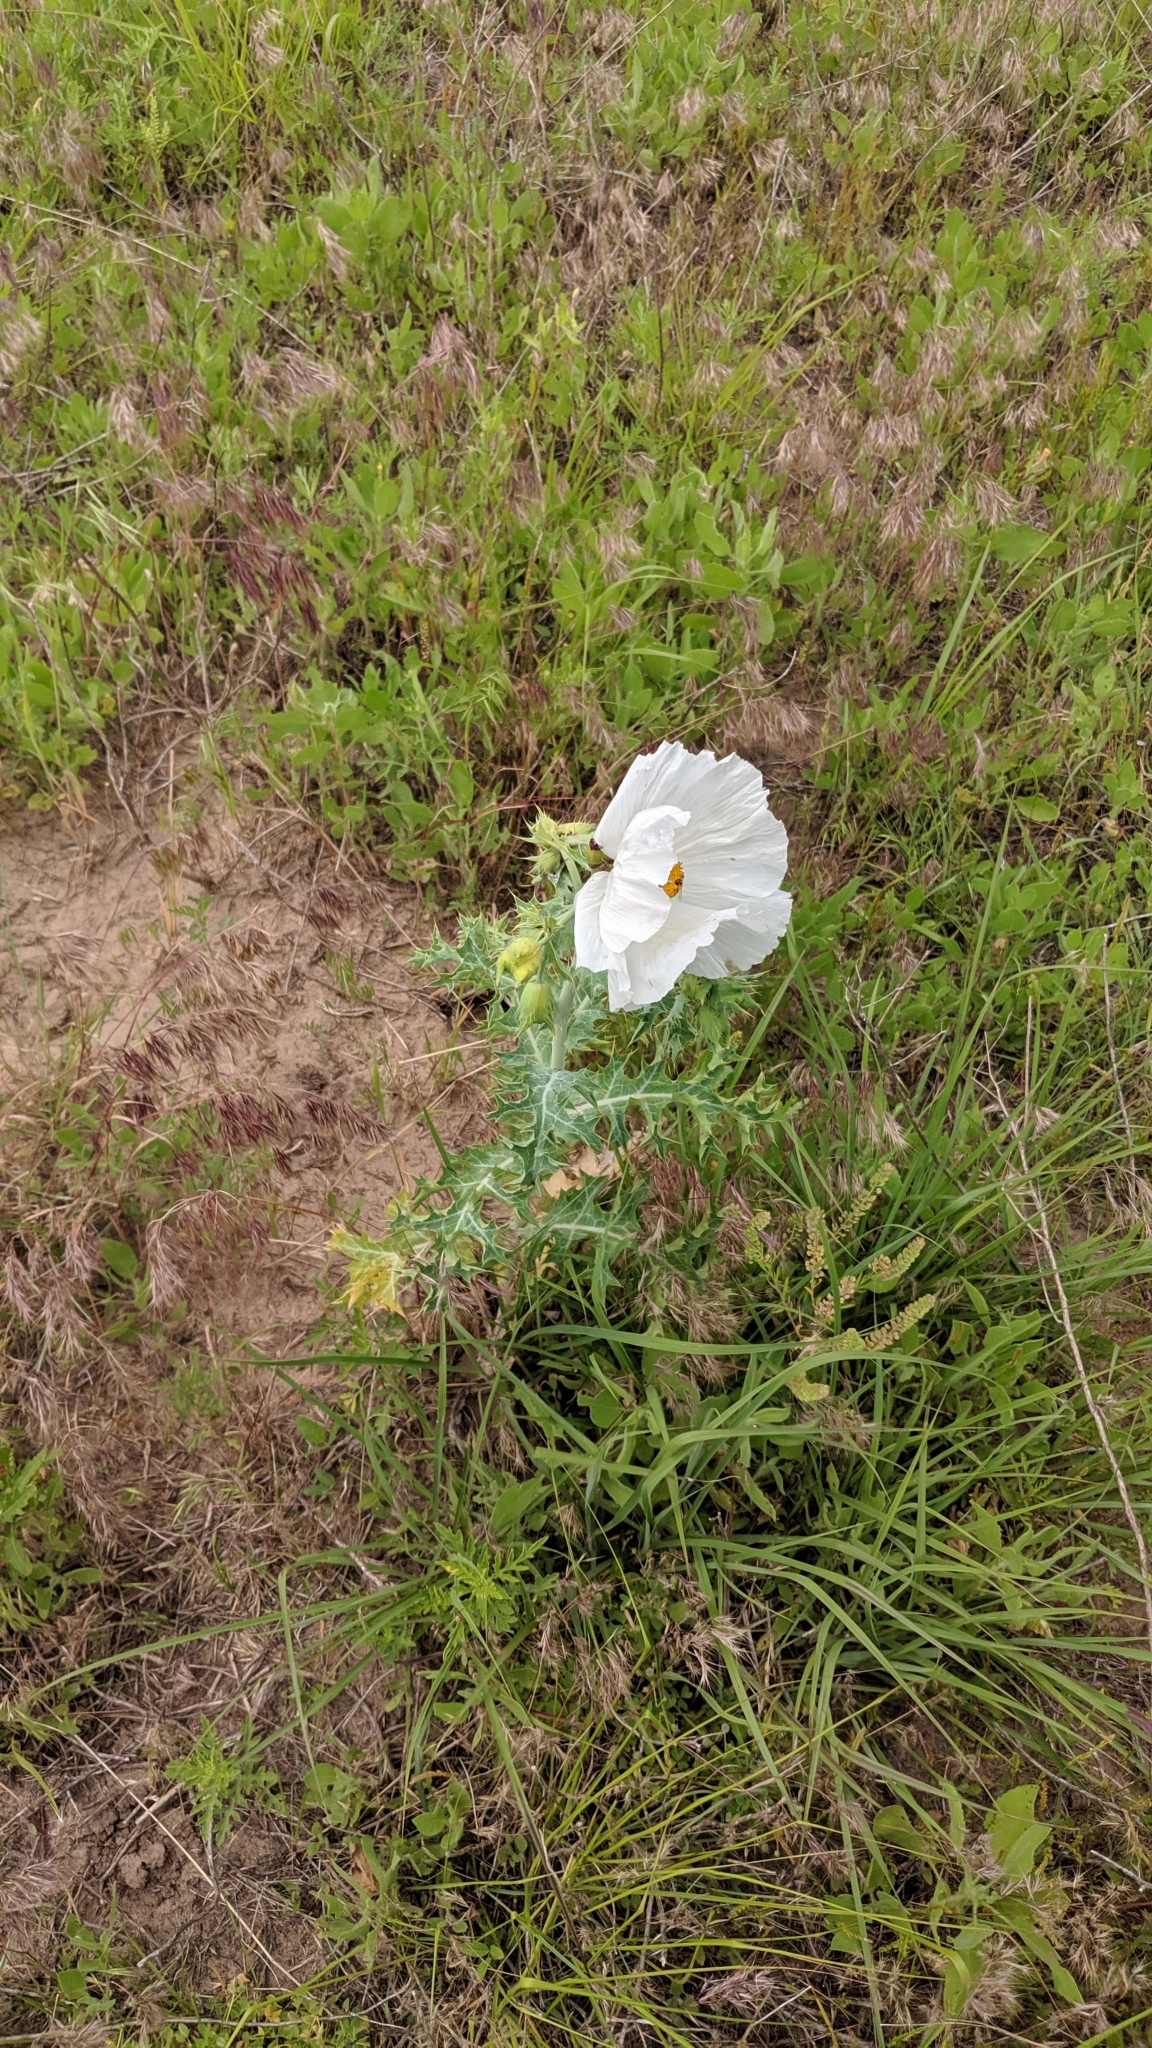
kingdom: Plantae
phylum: Tracheophyta
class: Magnoliopsida
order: Ranunculales
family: Papaveraceae
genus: Argemone
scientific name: Argemone polyanthemos
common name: Plains prickly-poppy
